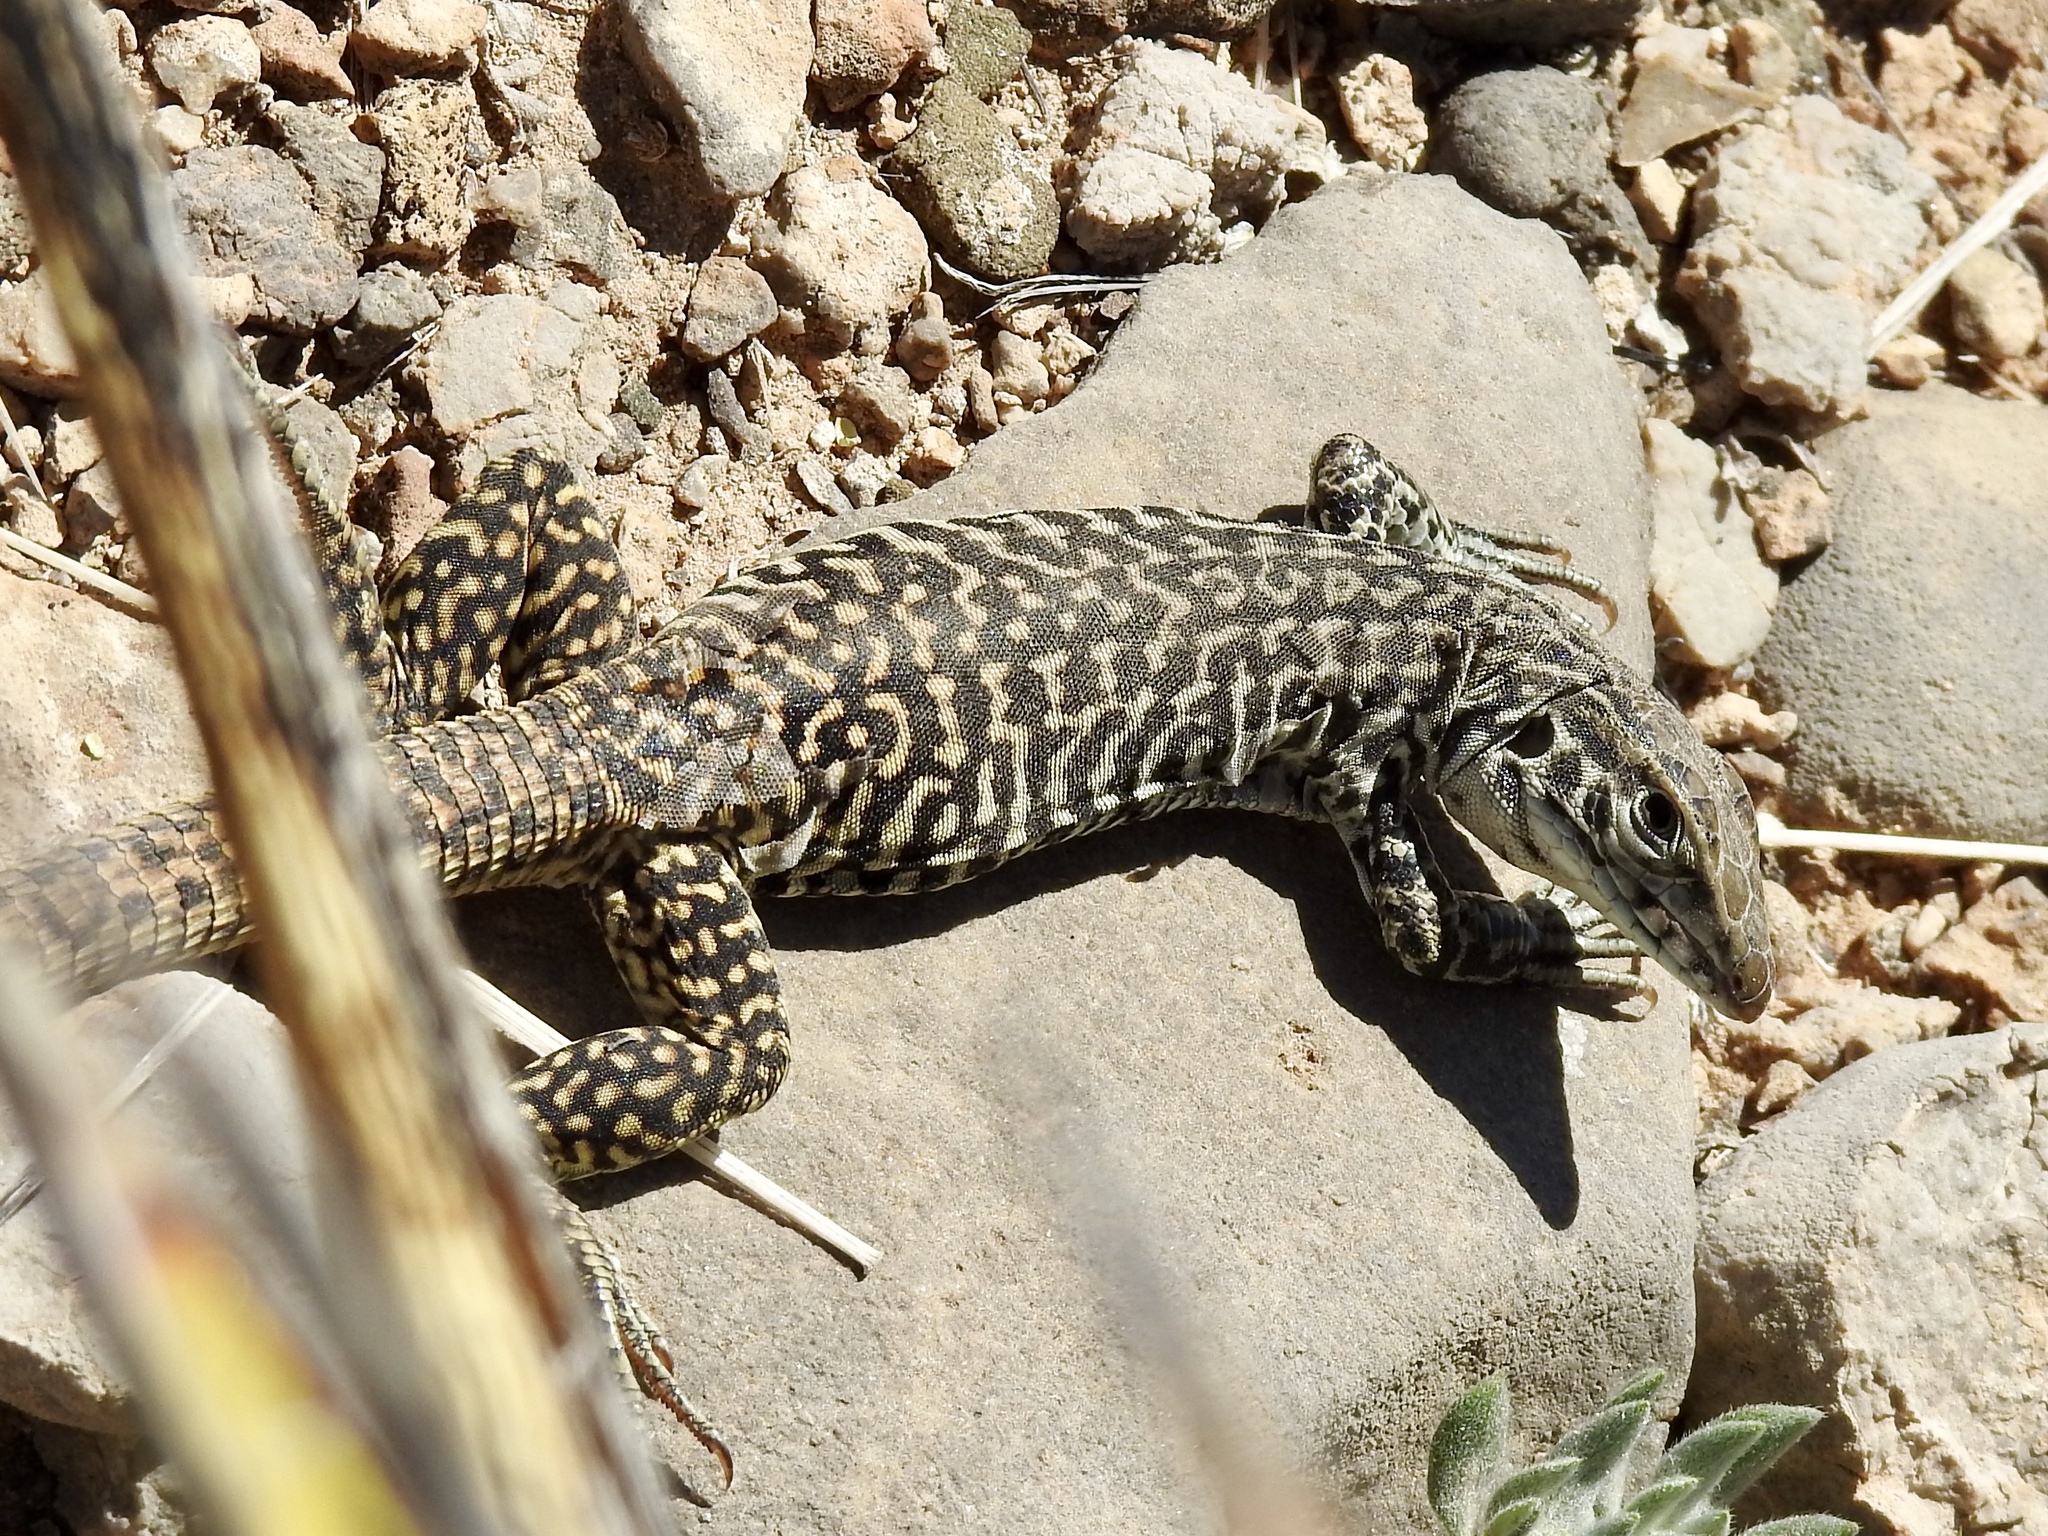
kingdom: Animalia
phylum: Chordata
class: Squamata
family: Teiidae
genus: Aspidoscelis
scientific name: Aspidoscelis tesselatus
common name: Common checkered whiptail [tesselata]
